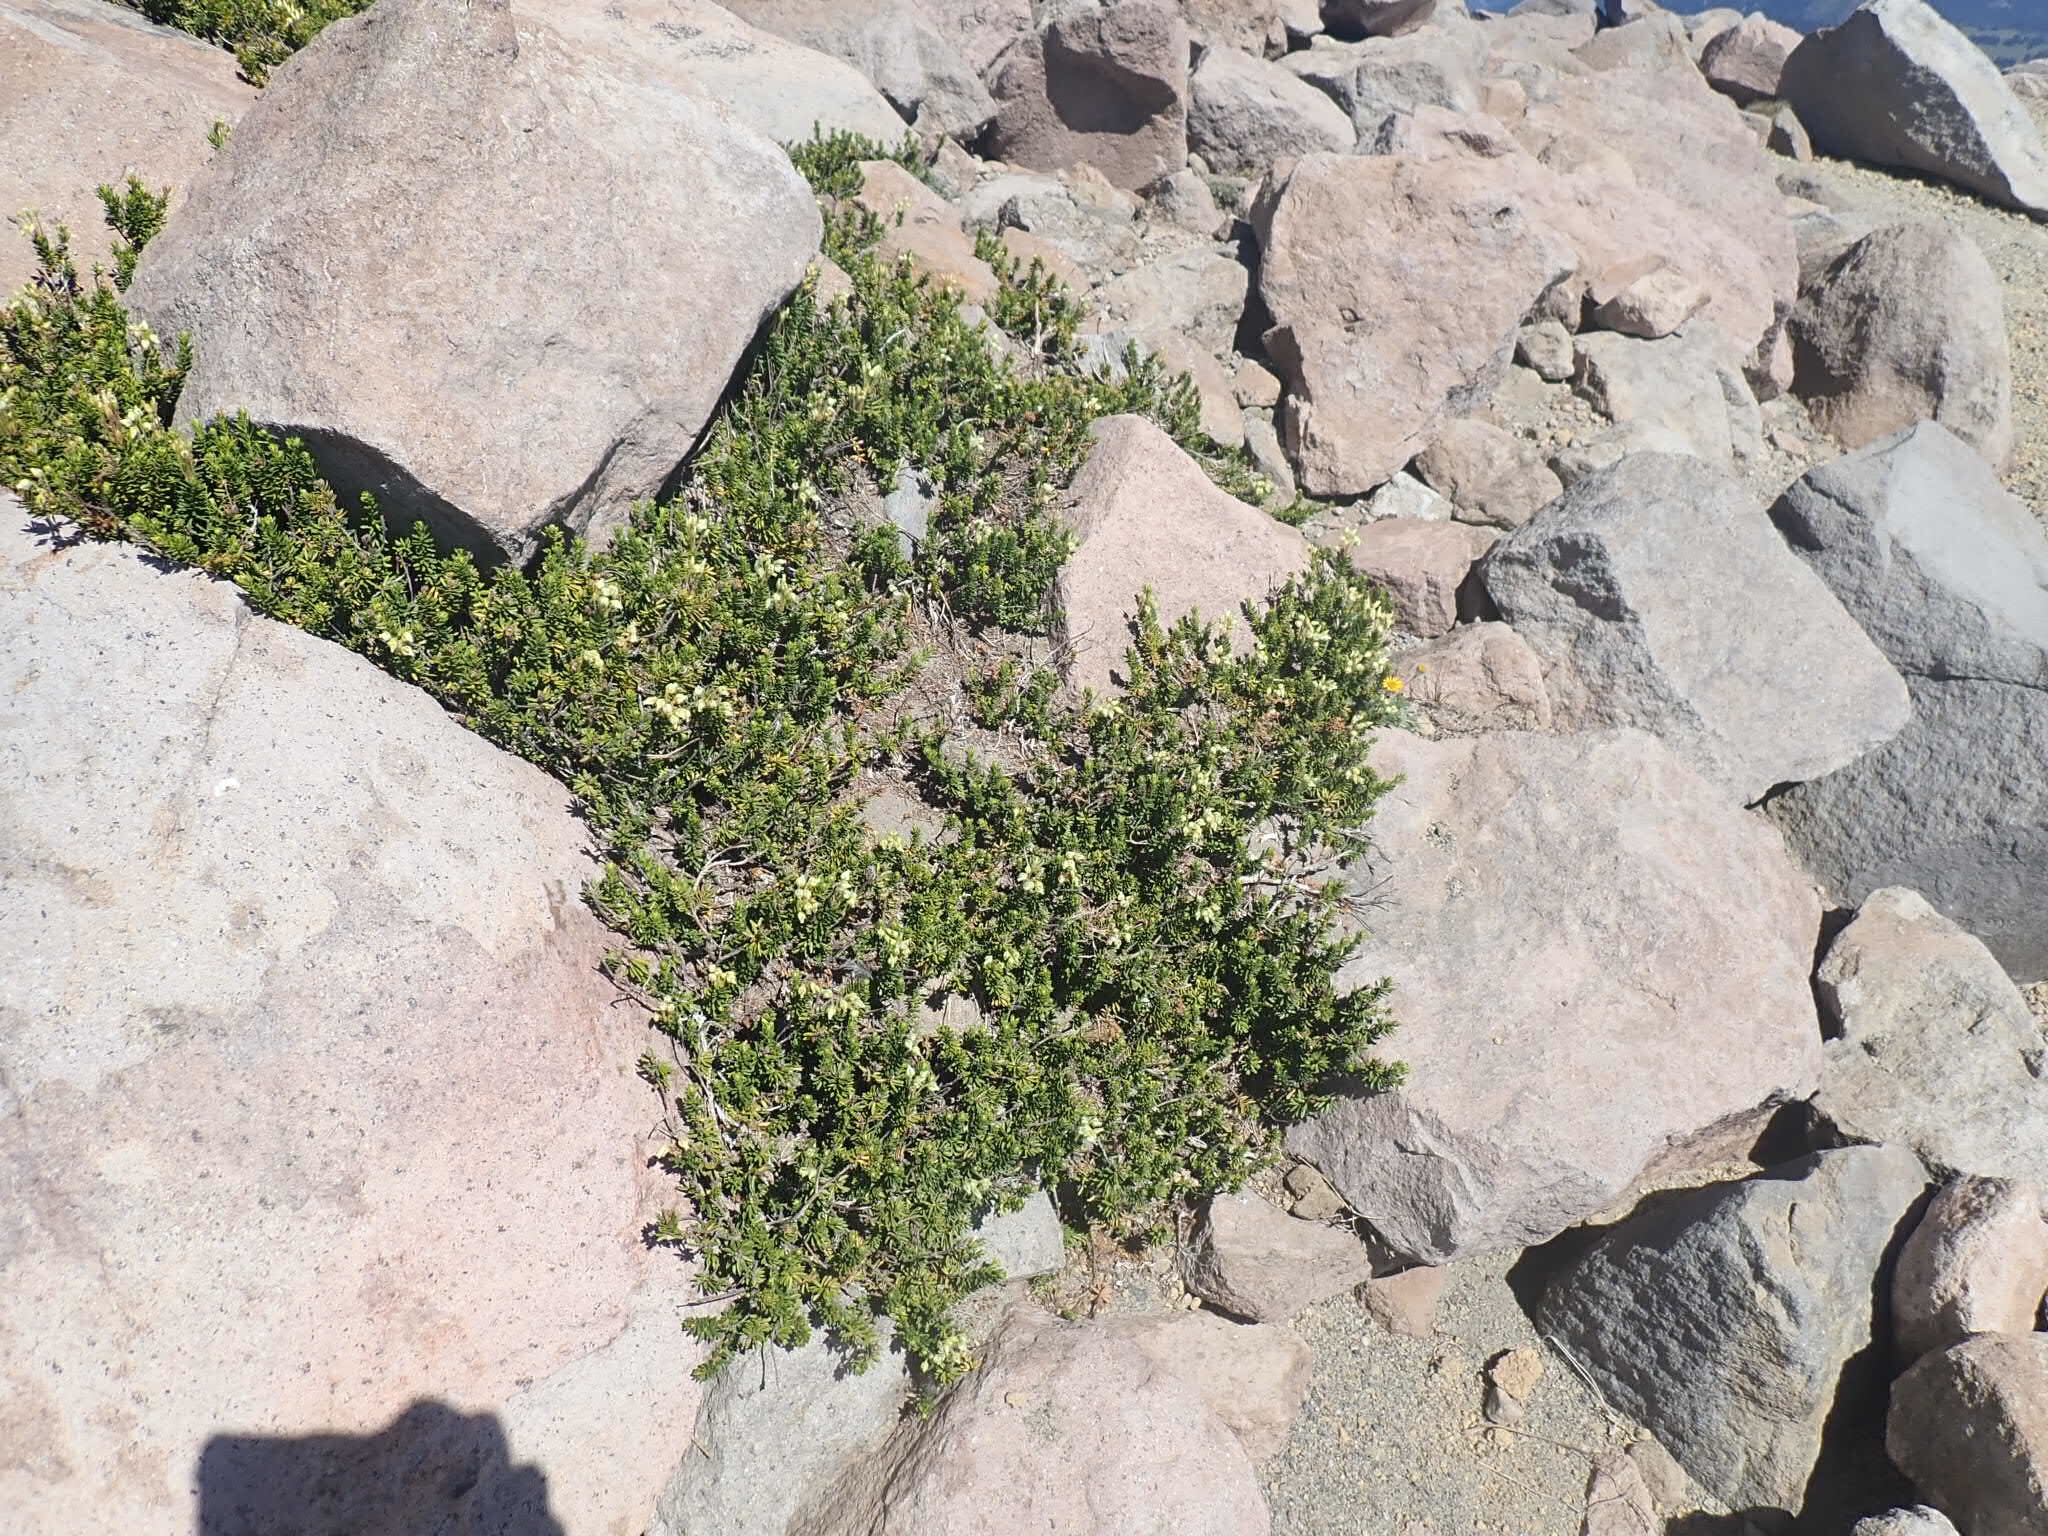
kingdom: Plantae
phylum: Tracheophyta
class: Magnoliopsida
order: Ericales
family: Ericaceae
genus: Phyllodoce
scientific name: Phyllodoce glanduliflora
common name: Cream mountain heather
